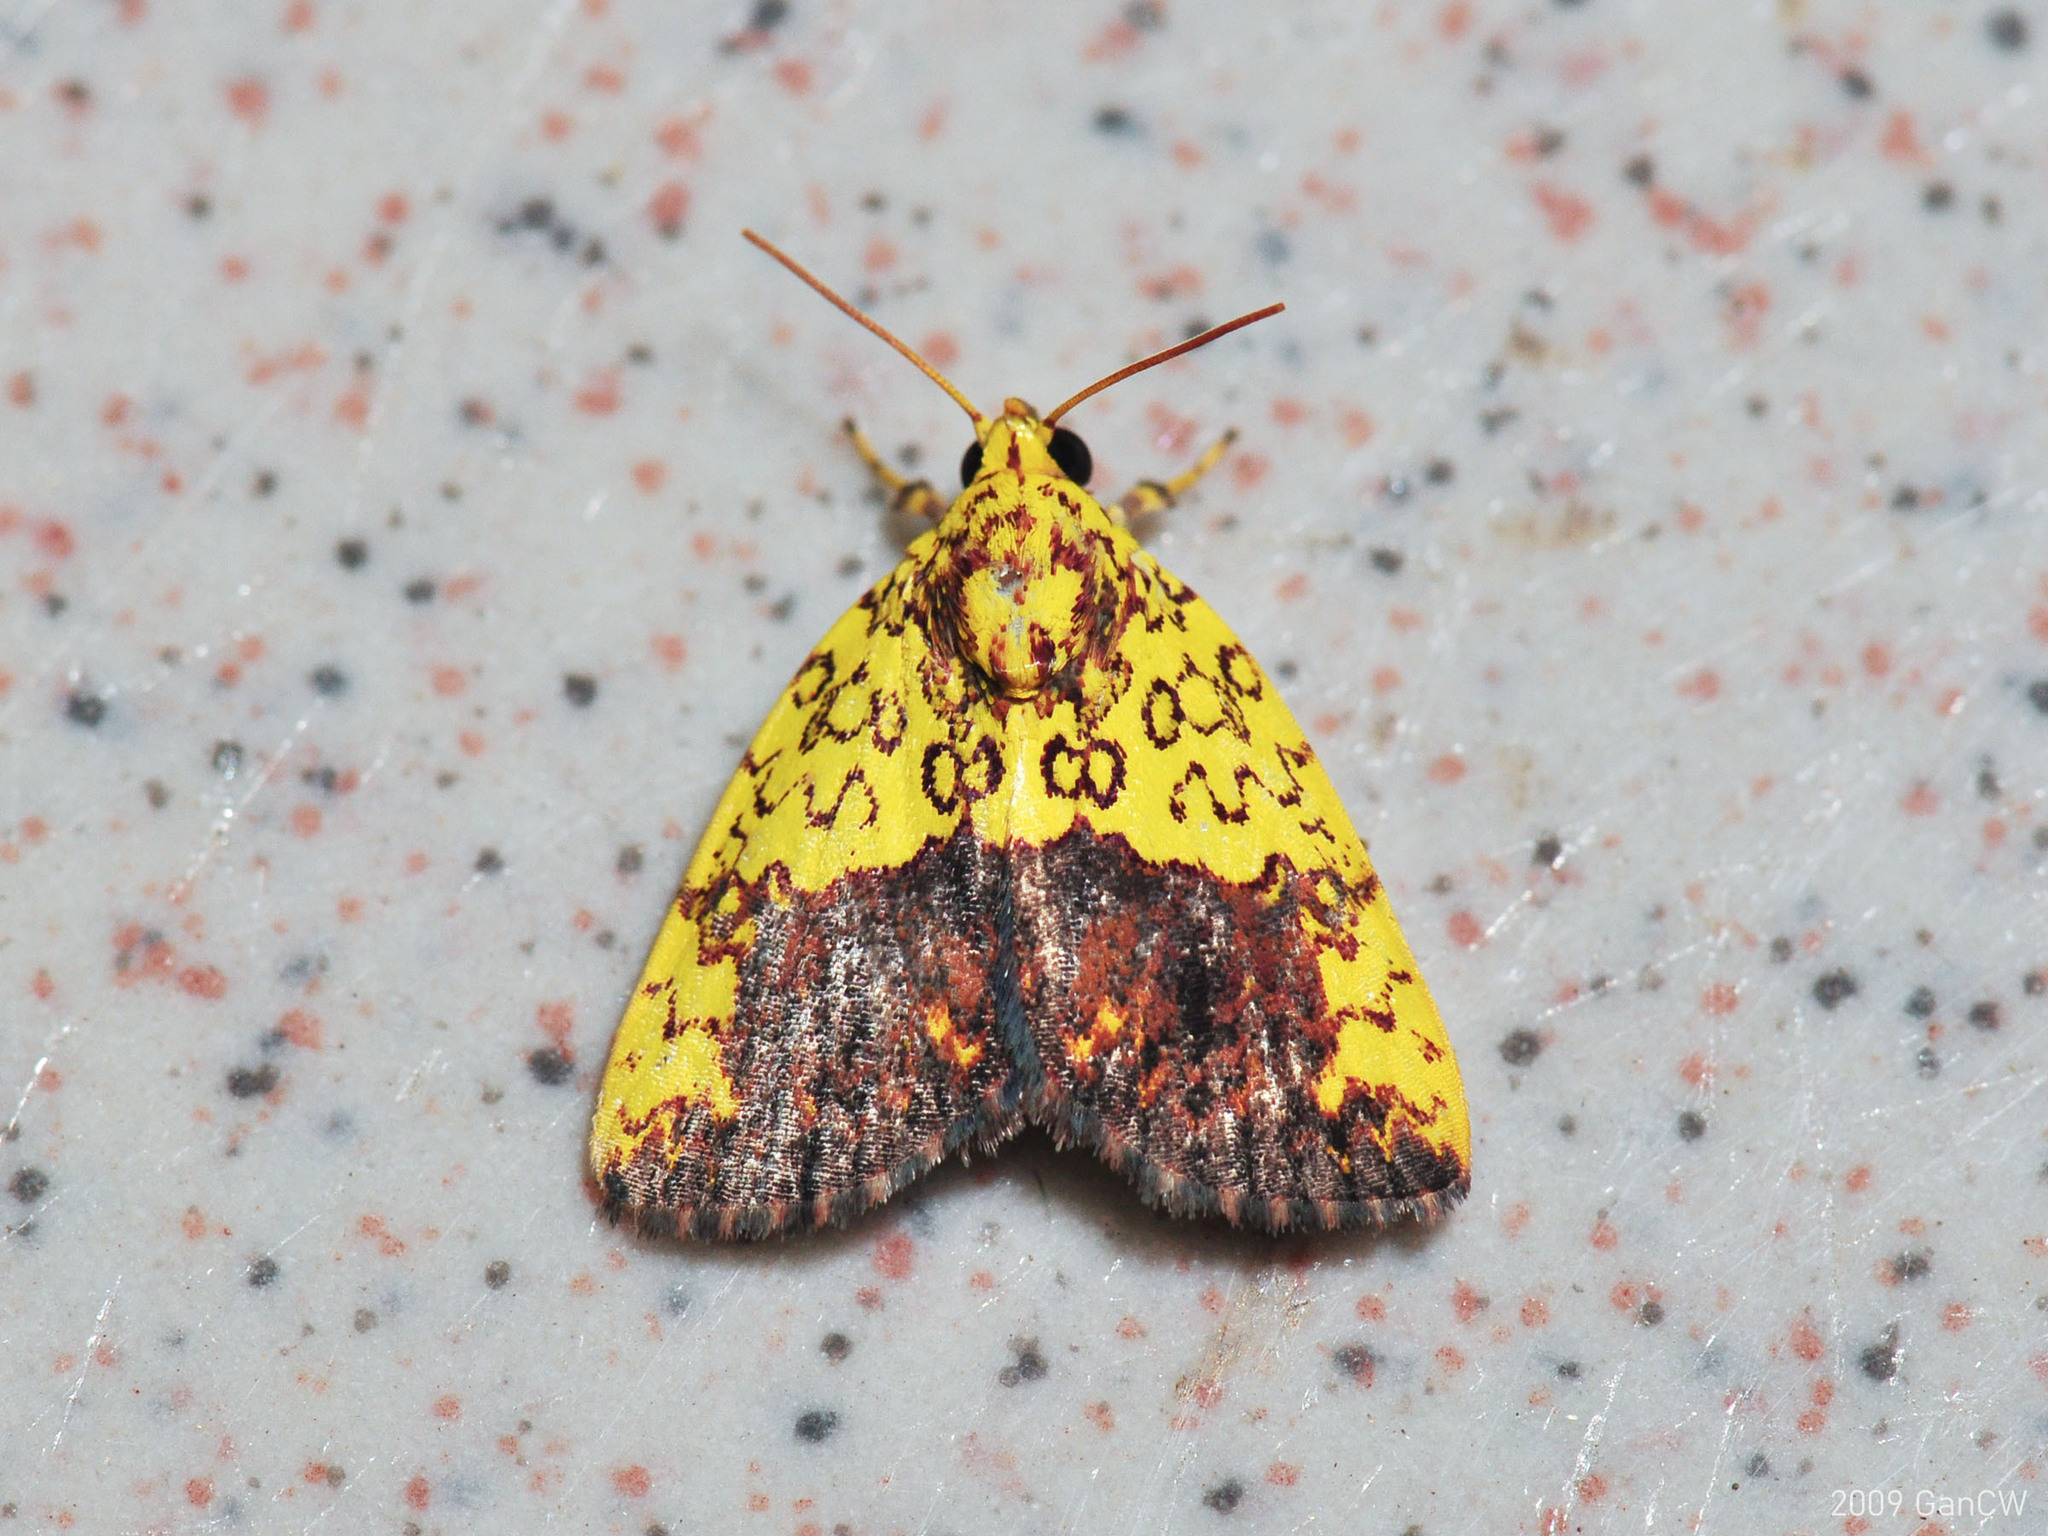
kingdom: Animalia
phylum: Arthropoda
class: Insecta
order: Lepidoptera
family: Nolidae
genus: Siglophora
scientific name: Siglophora bella
